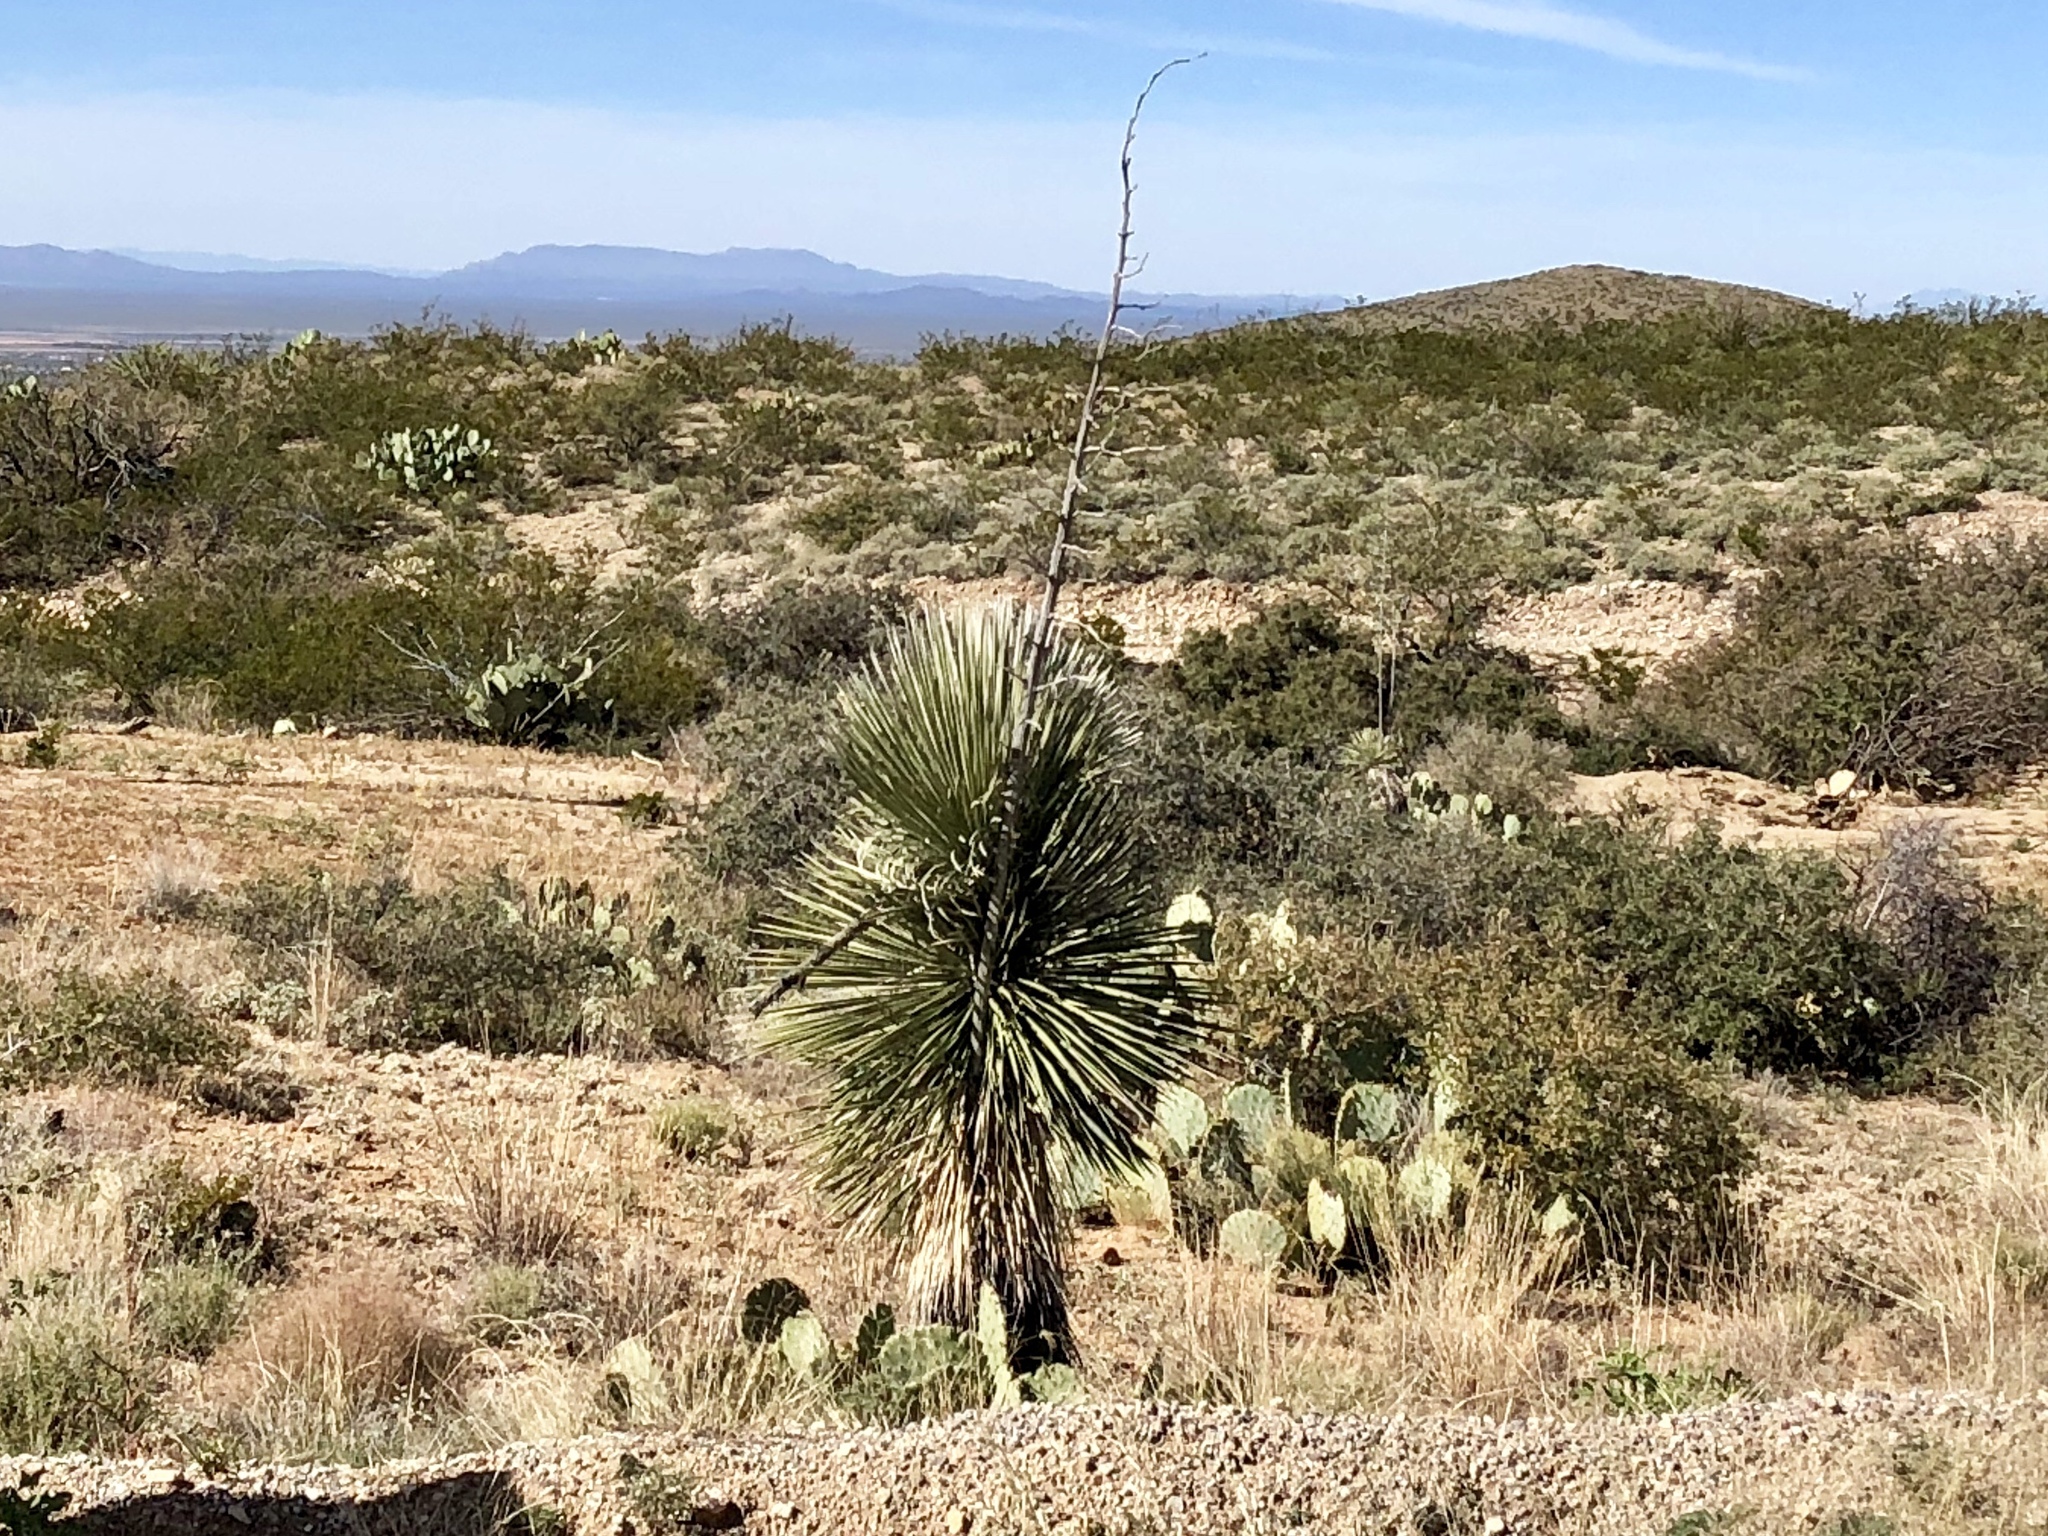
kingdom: Plantae
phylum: Tracheophyta
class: Liliopsida
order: Asparagales
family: Asparagaceae
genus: Yucca
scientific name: Yucca elata
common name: Palmella
